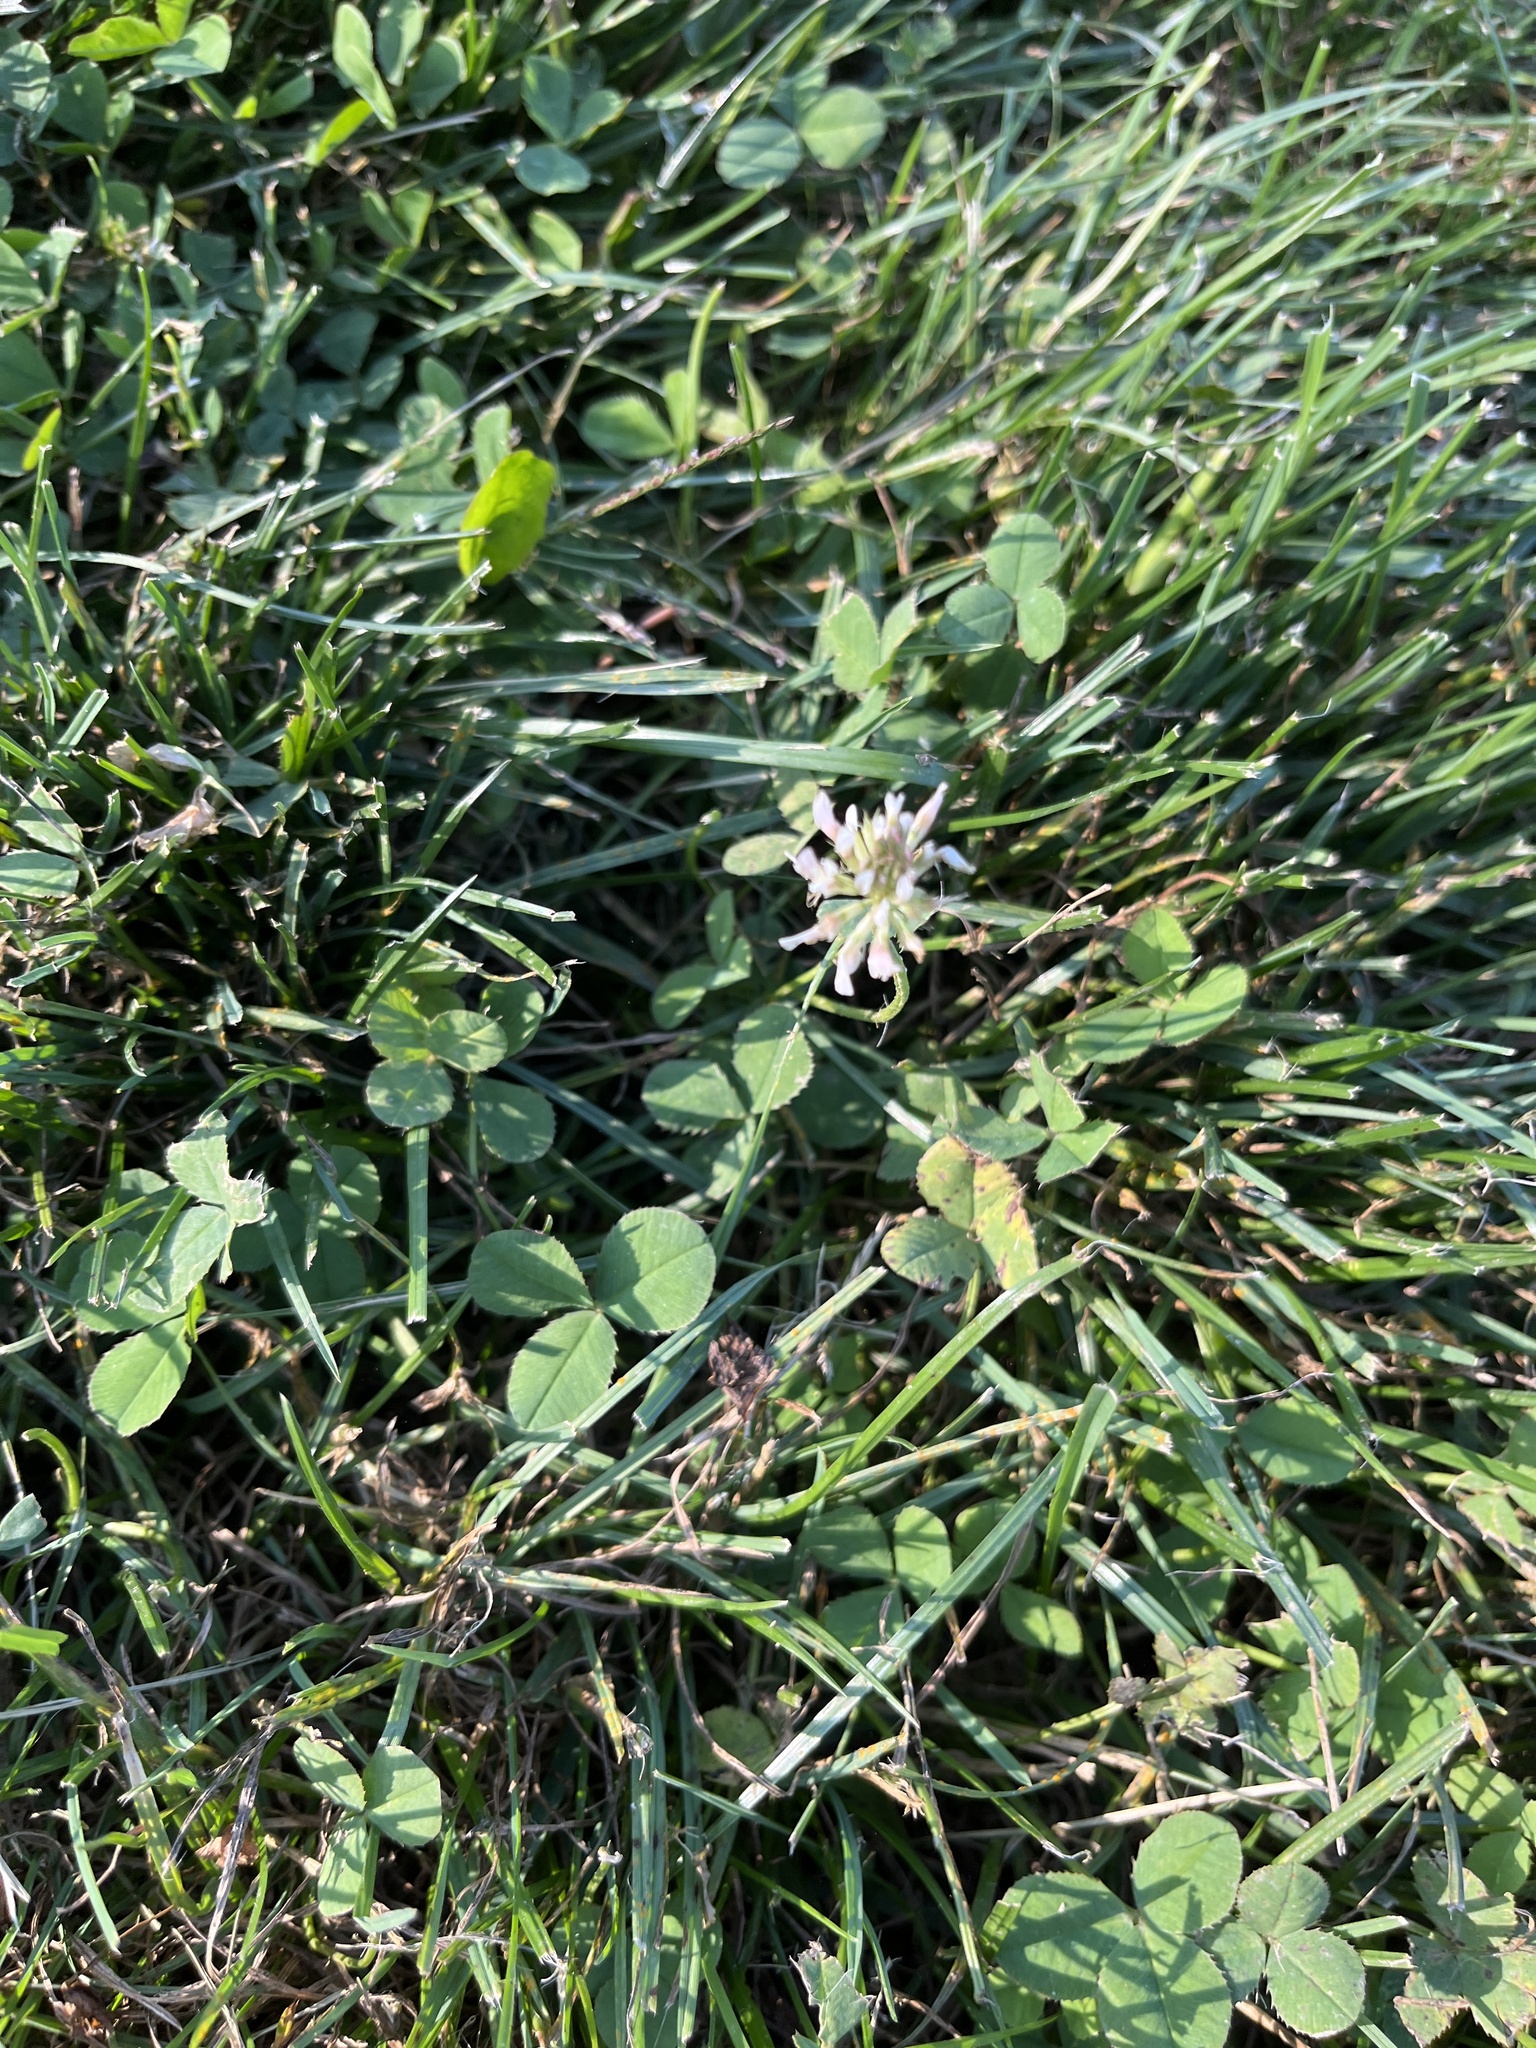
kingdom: Plantae
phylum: Tracheophyta
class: Magnoliopsida
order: Fabales
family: Fabaceae
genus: Trifolium
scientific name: Trifolium repens
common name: White clover
